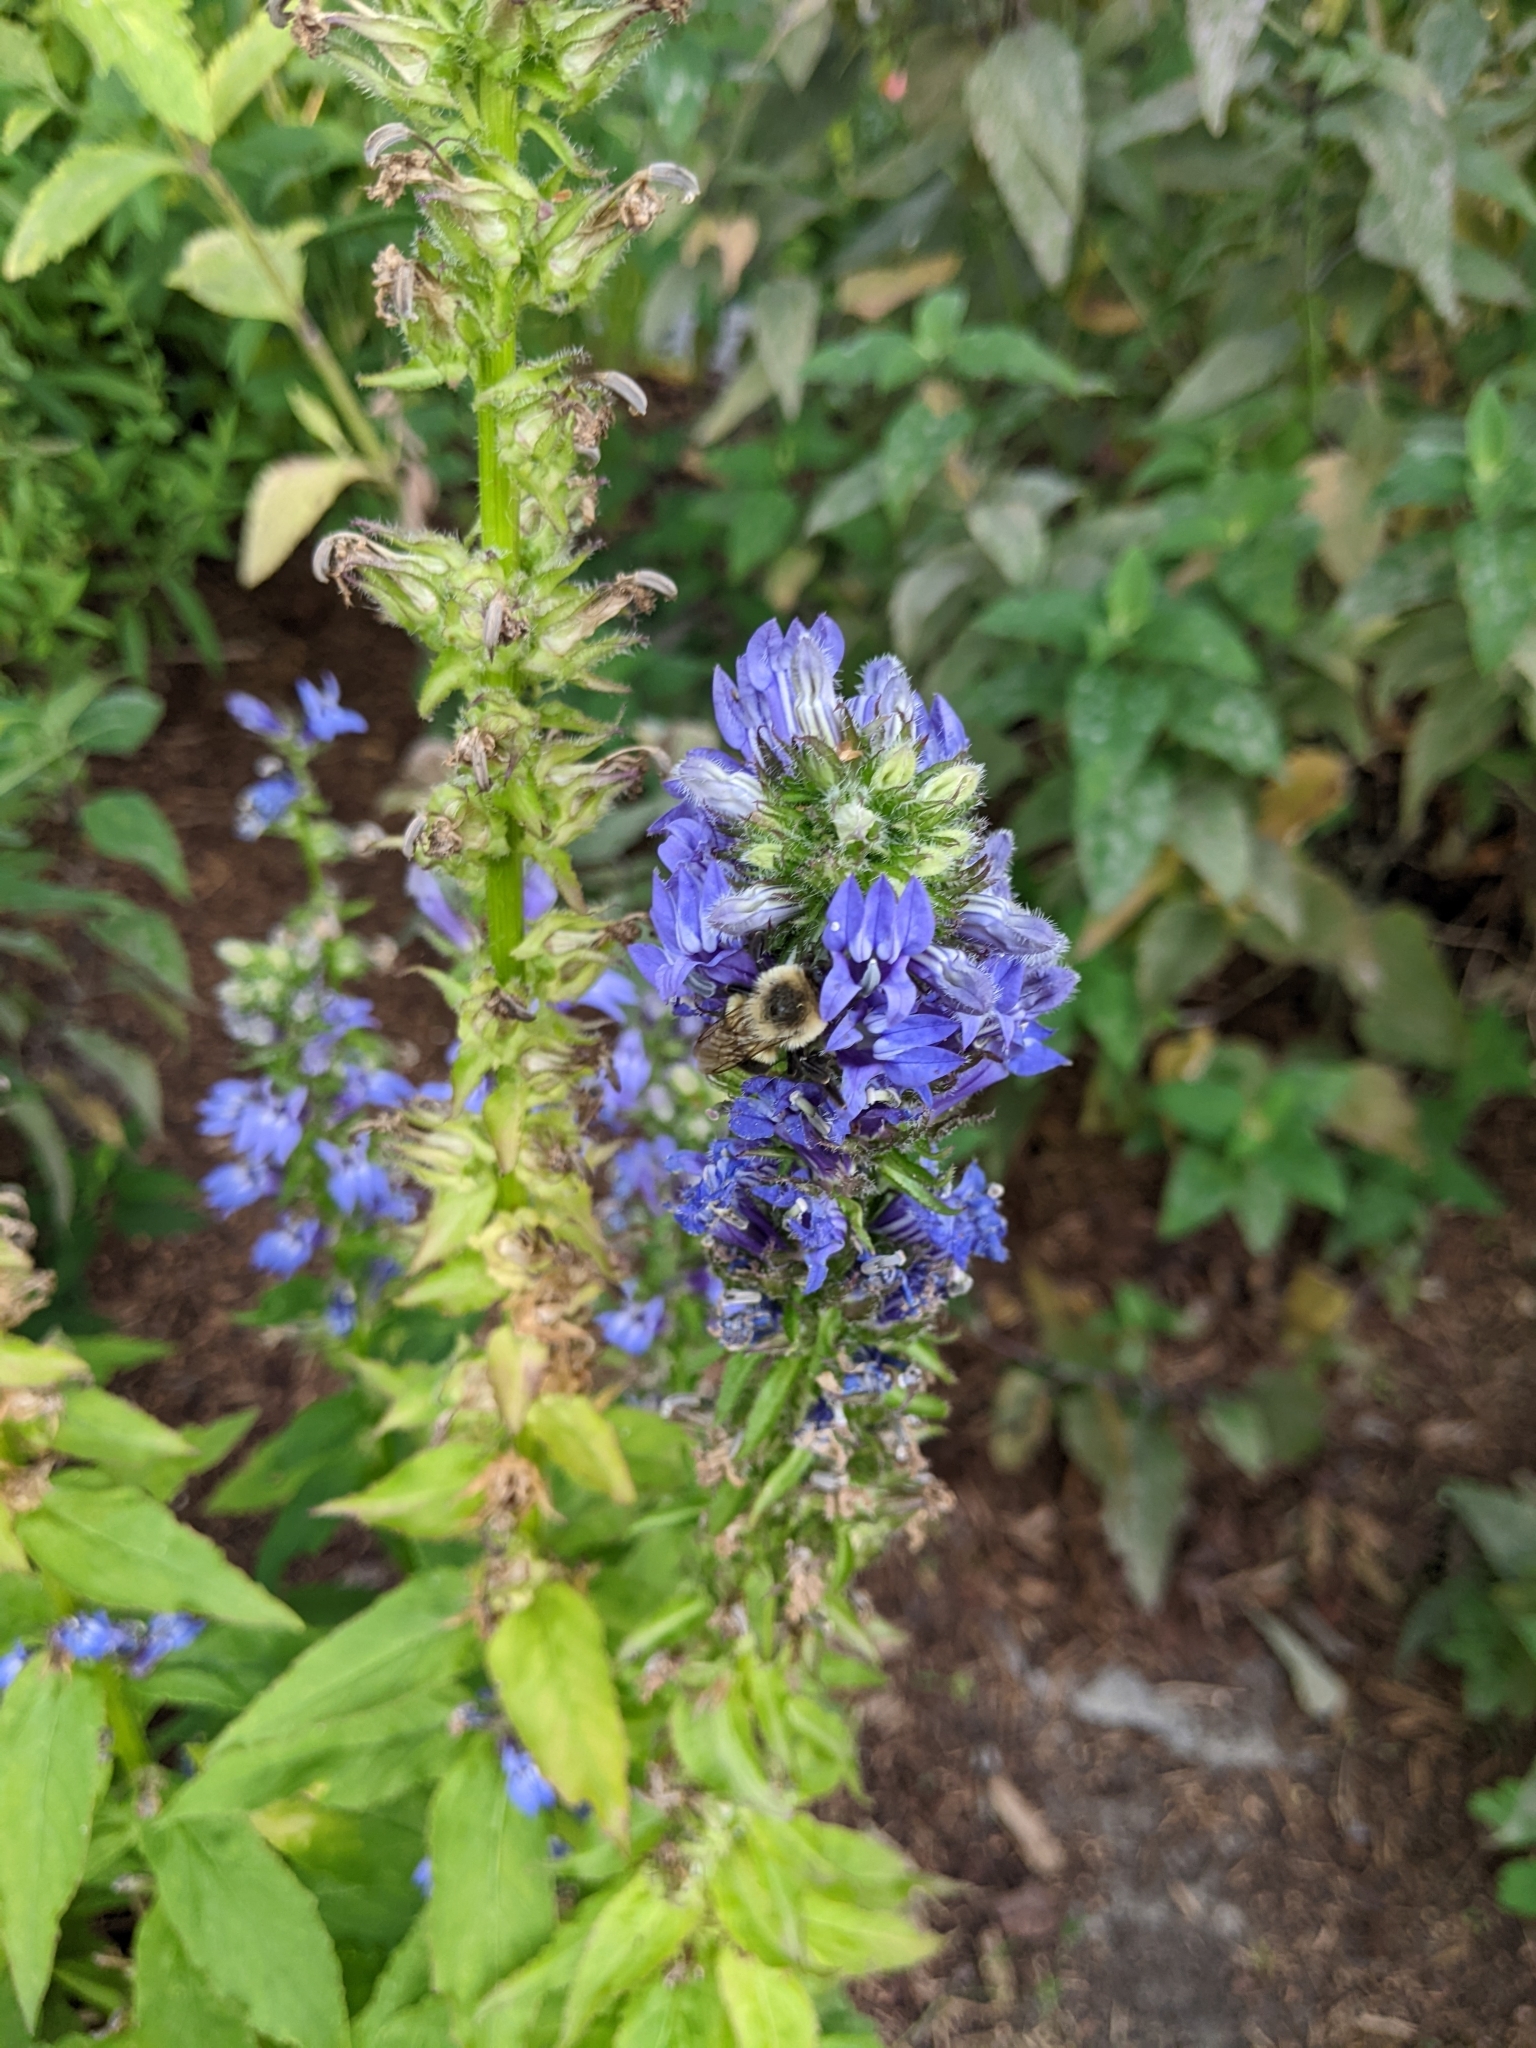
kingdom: Animalia
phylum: Arthropoda
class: Insecta
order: Hymenoptera
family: Apidae
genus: Bombus
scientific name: Bombus impatiens
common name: Common eastern bumble bee
